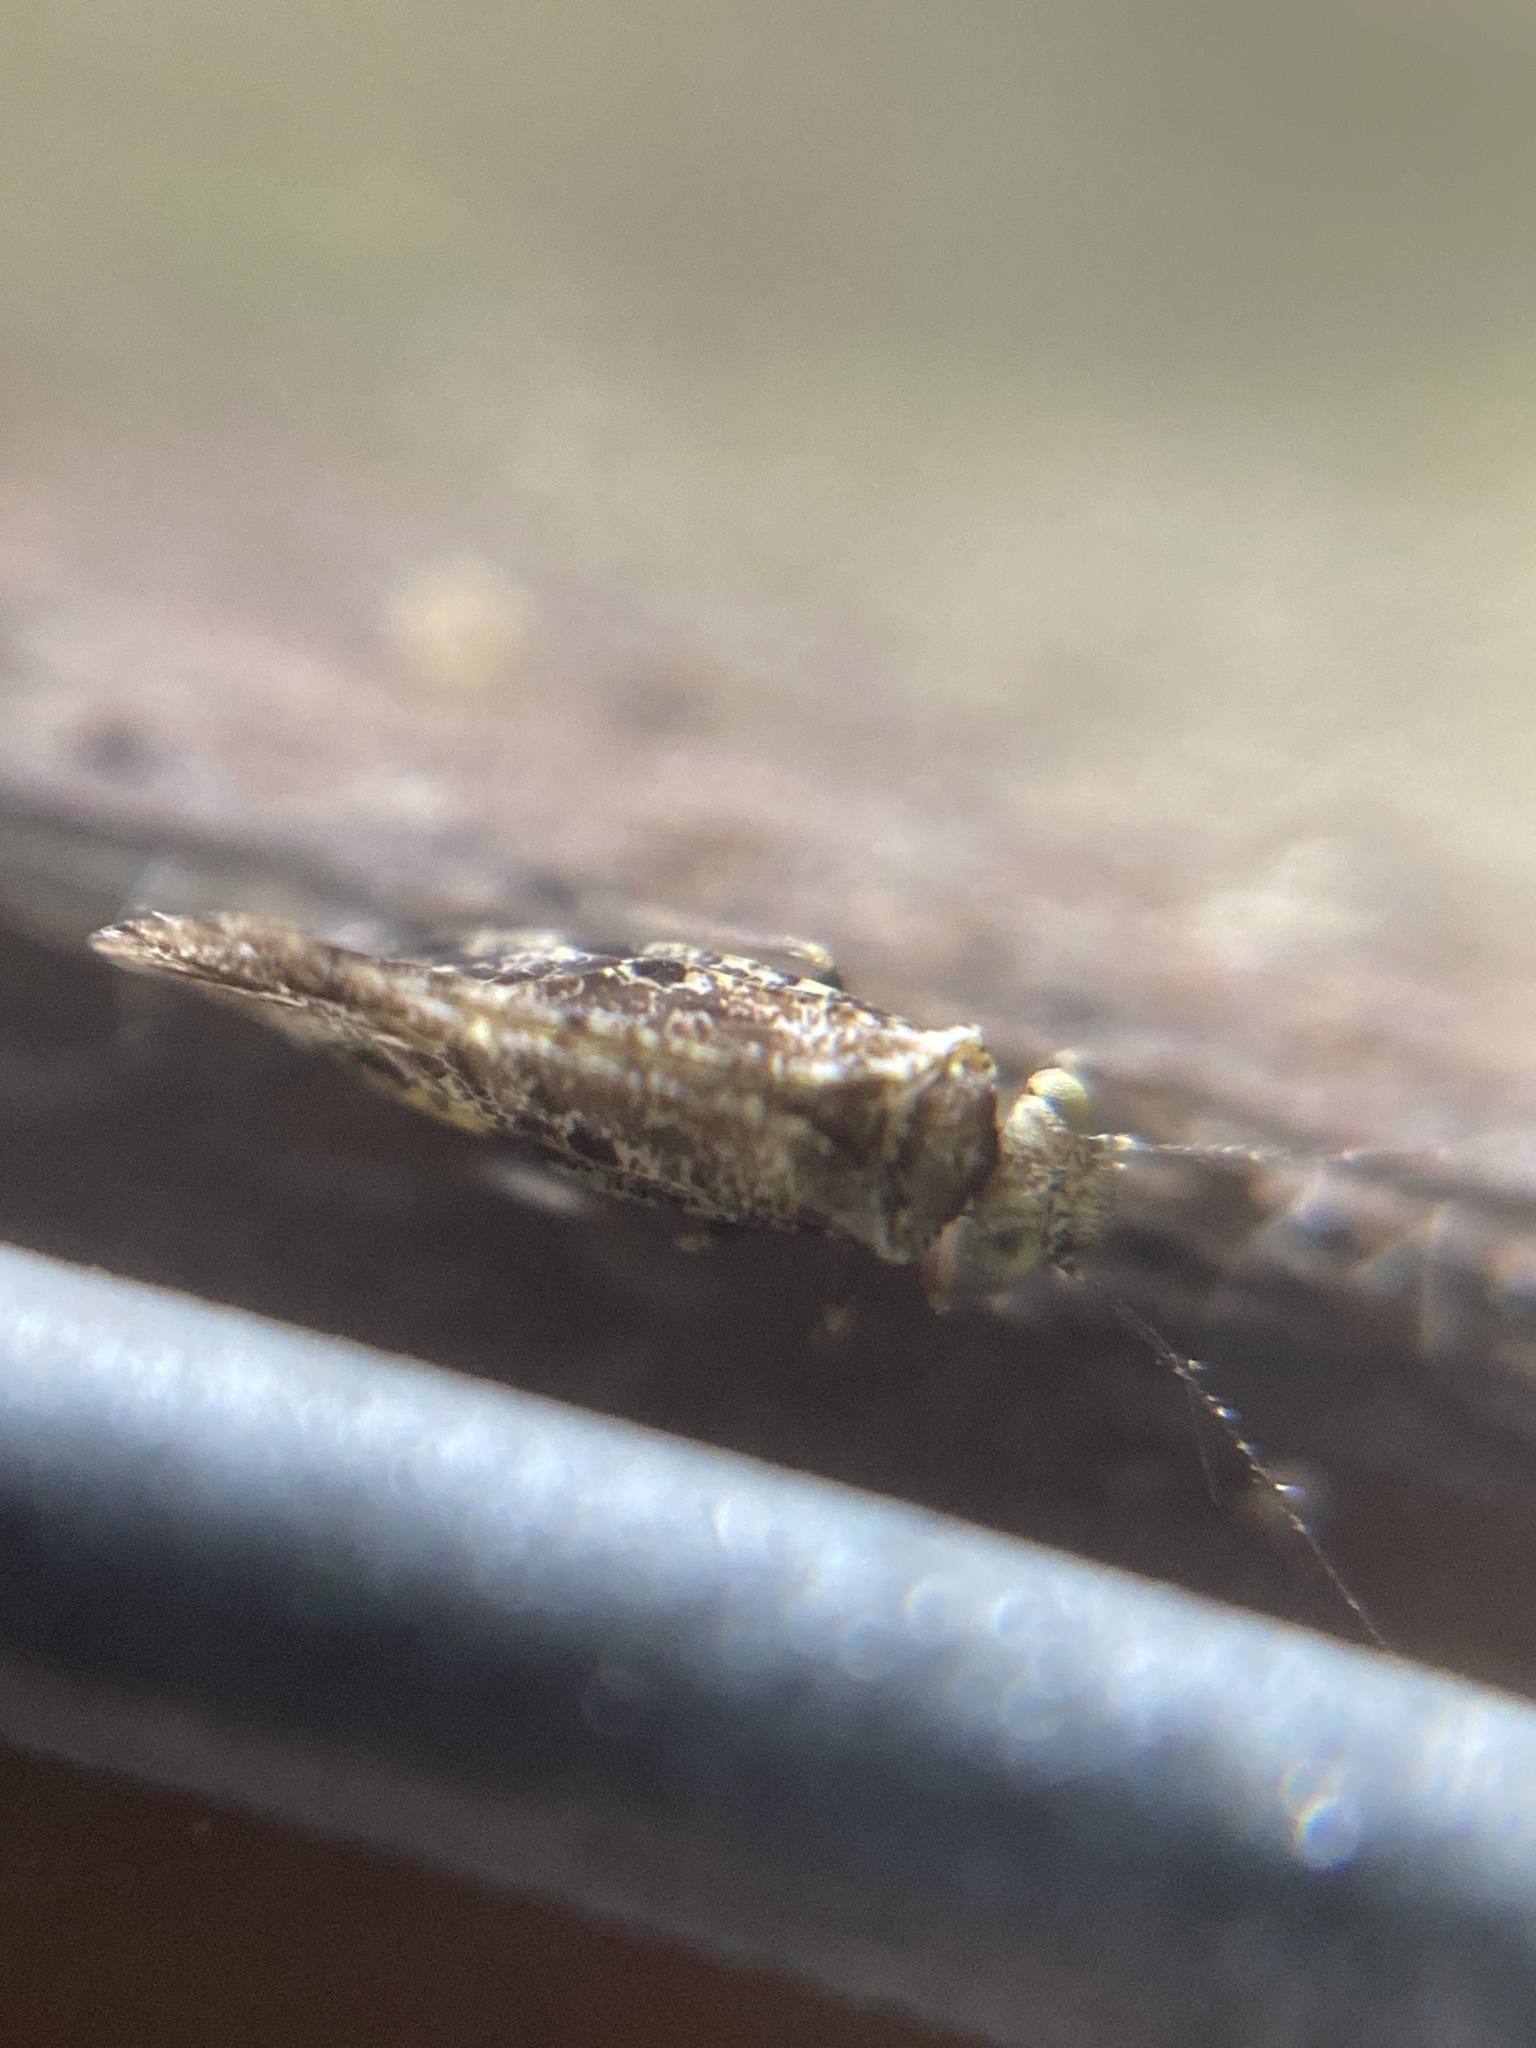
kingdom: Animalia
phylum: Arthropoda
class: Insecta
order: Psocodea
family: Psocidae
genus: Loensia
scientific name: Loensia variegata
